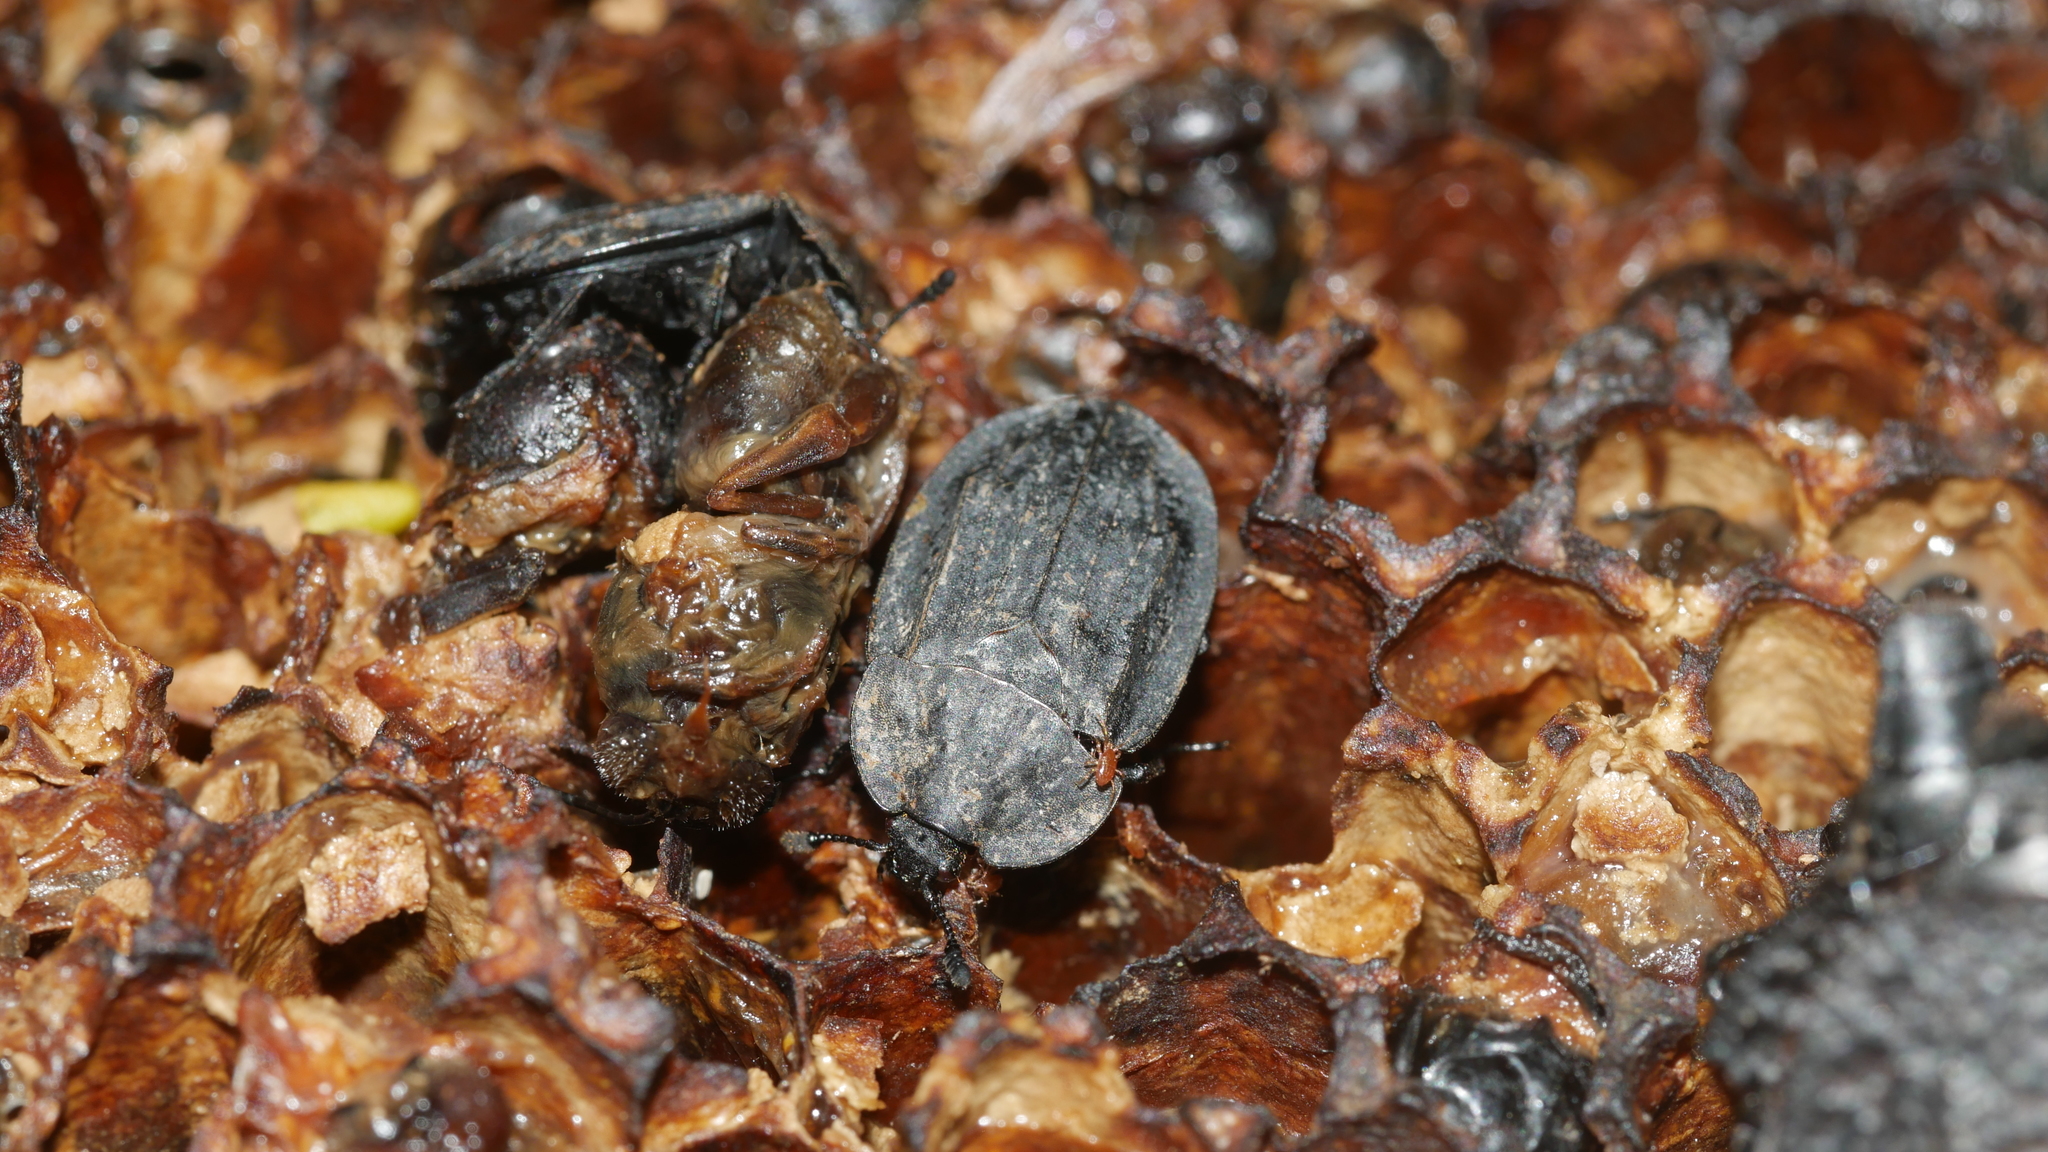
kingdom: Animalia
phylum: Arthropoda
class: Insecta
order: Coleoptera
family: Staphylinidae
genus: Oiceoptoma
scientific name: Oiceoptoma inaequale
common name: Ridged carrion beetle
